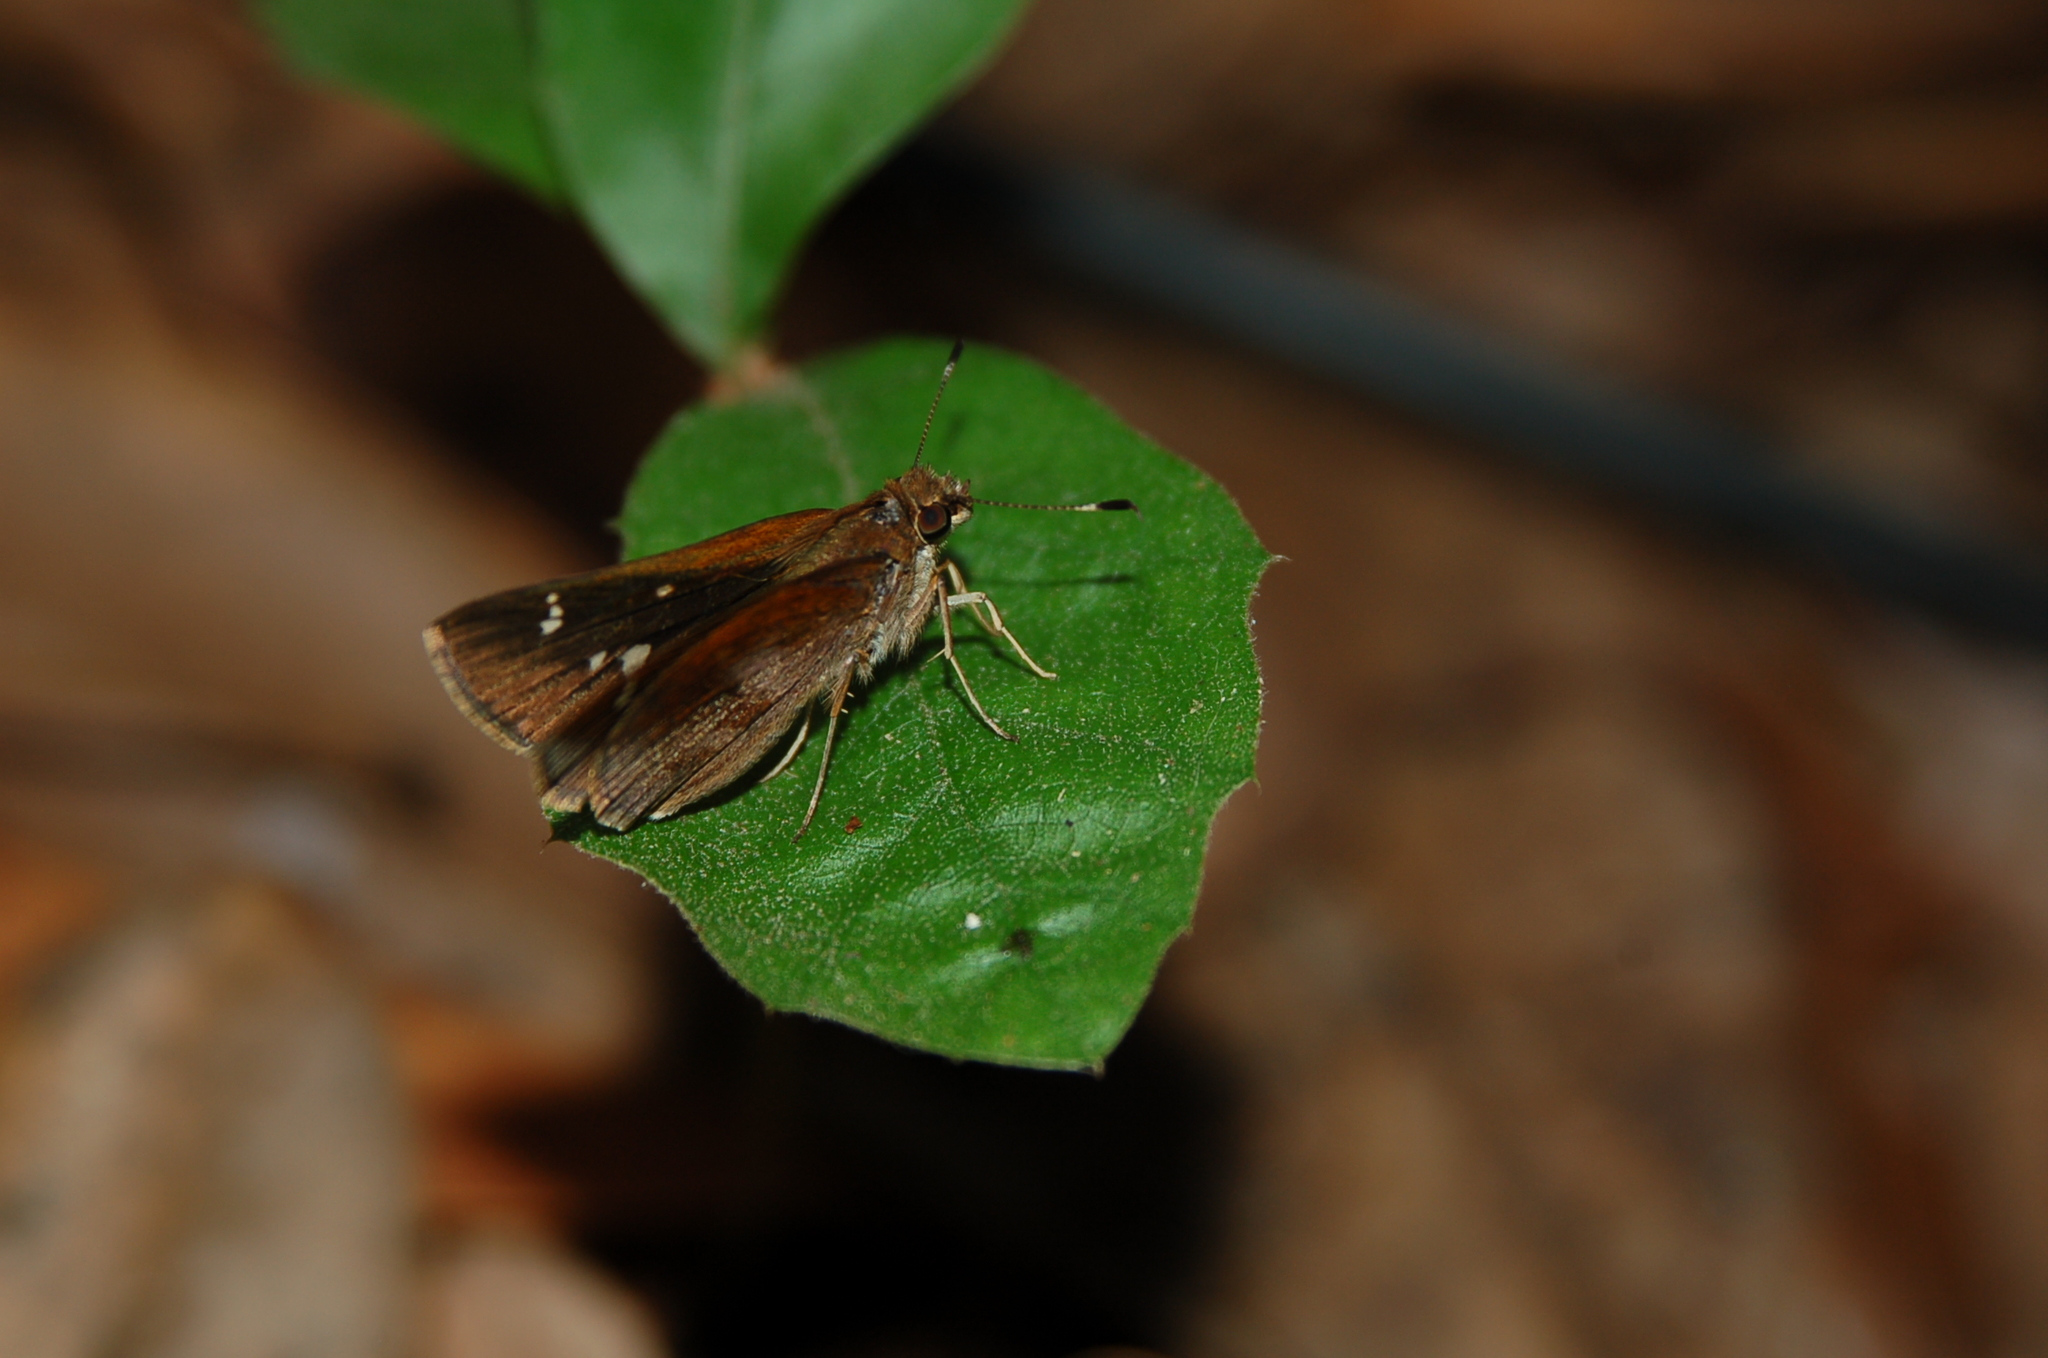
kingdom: Animalia
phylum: Arthropoda
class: Insecta
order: Lepidoptera
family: Hesperiidae
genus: Lerema
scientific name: Lerema accius
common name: Clouded skipper
